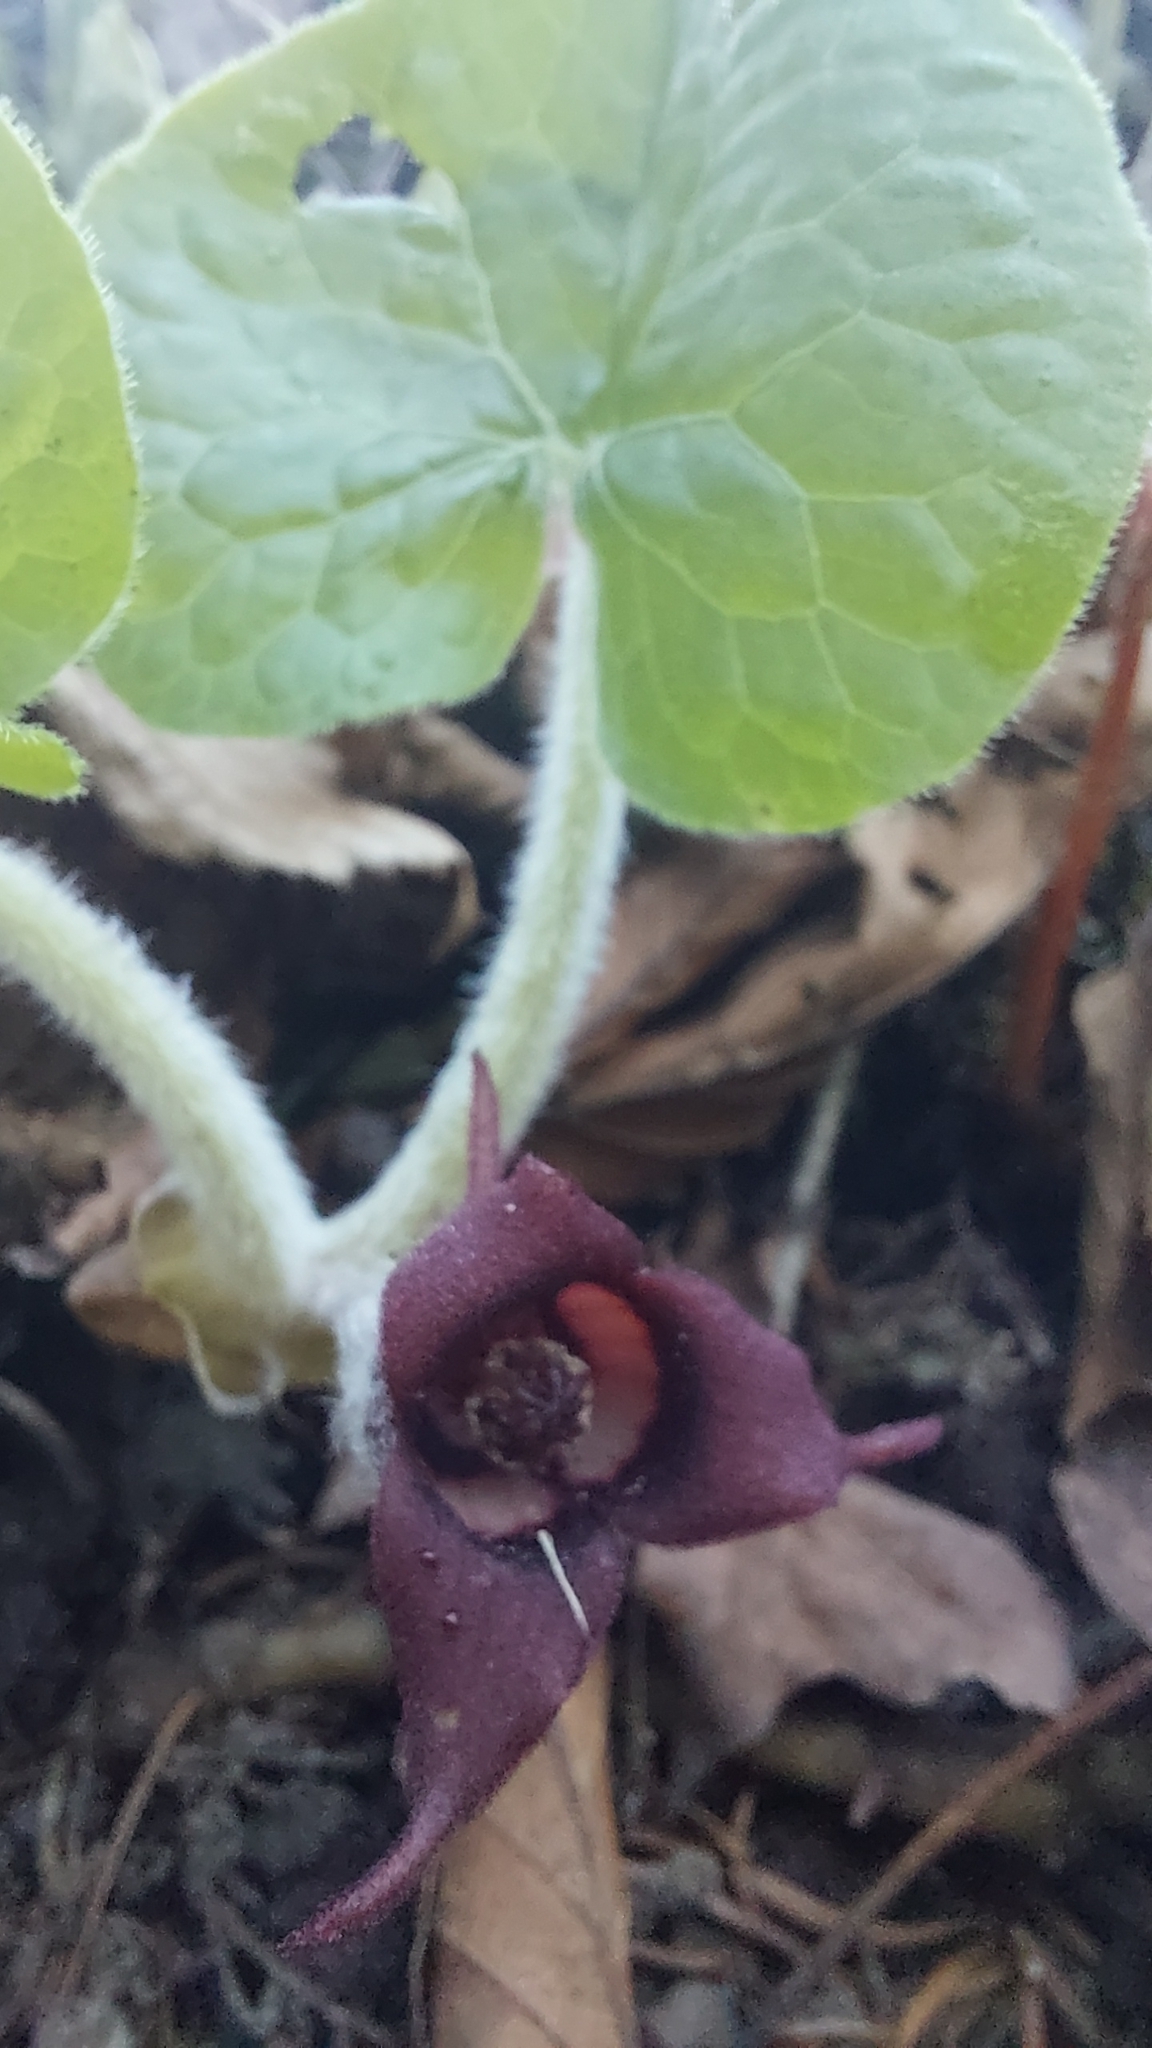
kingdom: Plantae
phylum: Tracheophyta
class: Magnoliopsida
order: Piperales
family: Aristolochiaceae
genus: Asarum
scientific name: Asarum canadense
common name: Wild ginger
